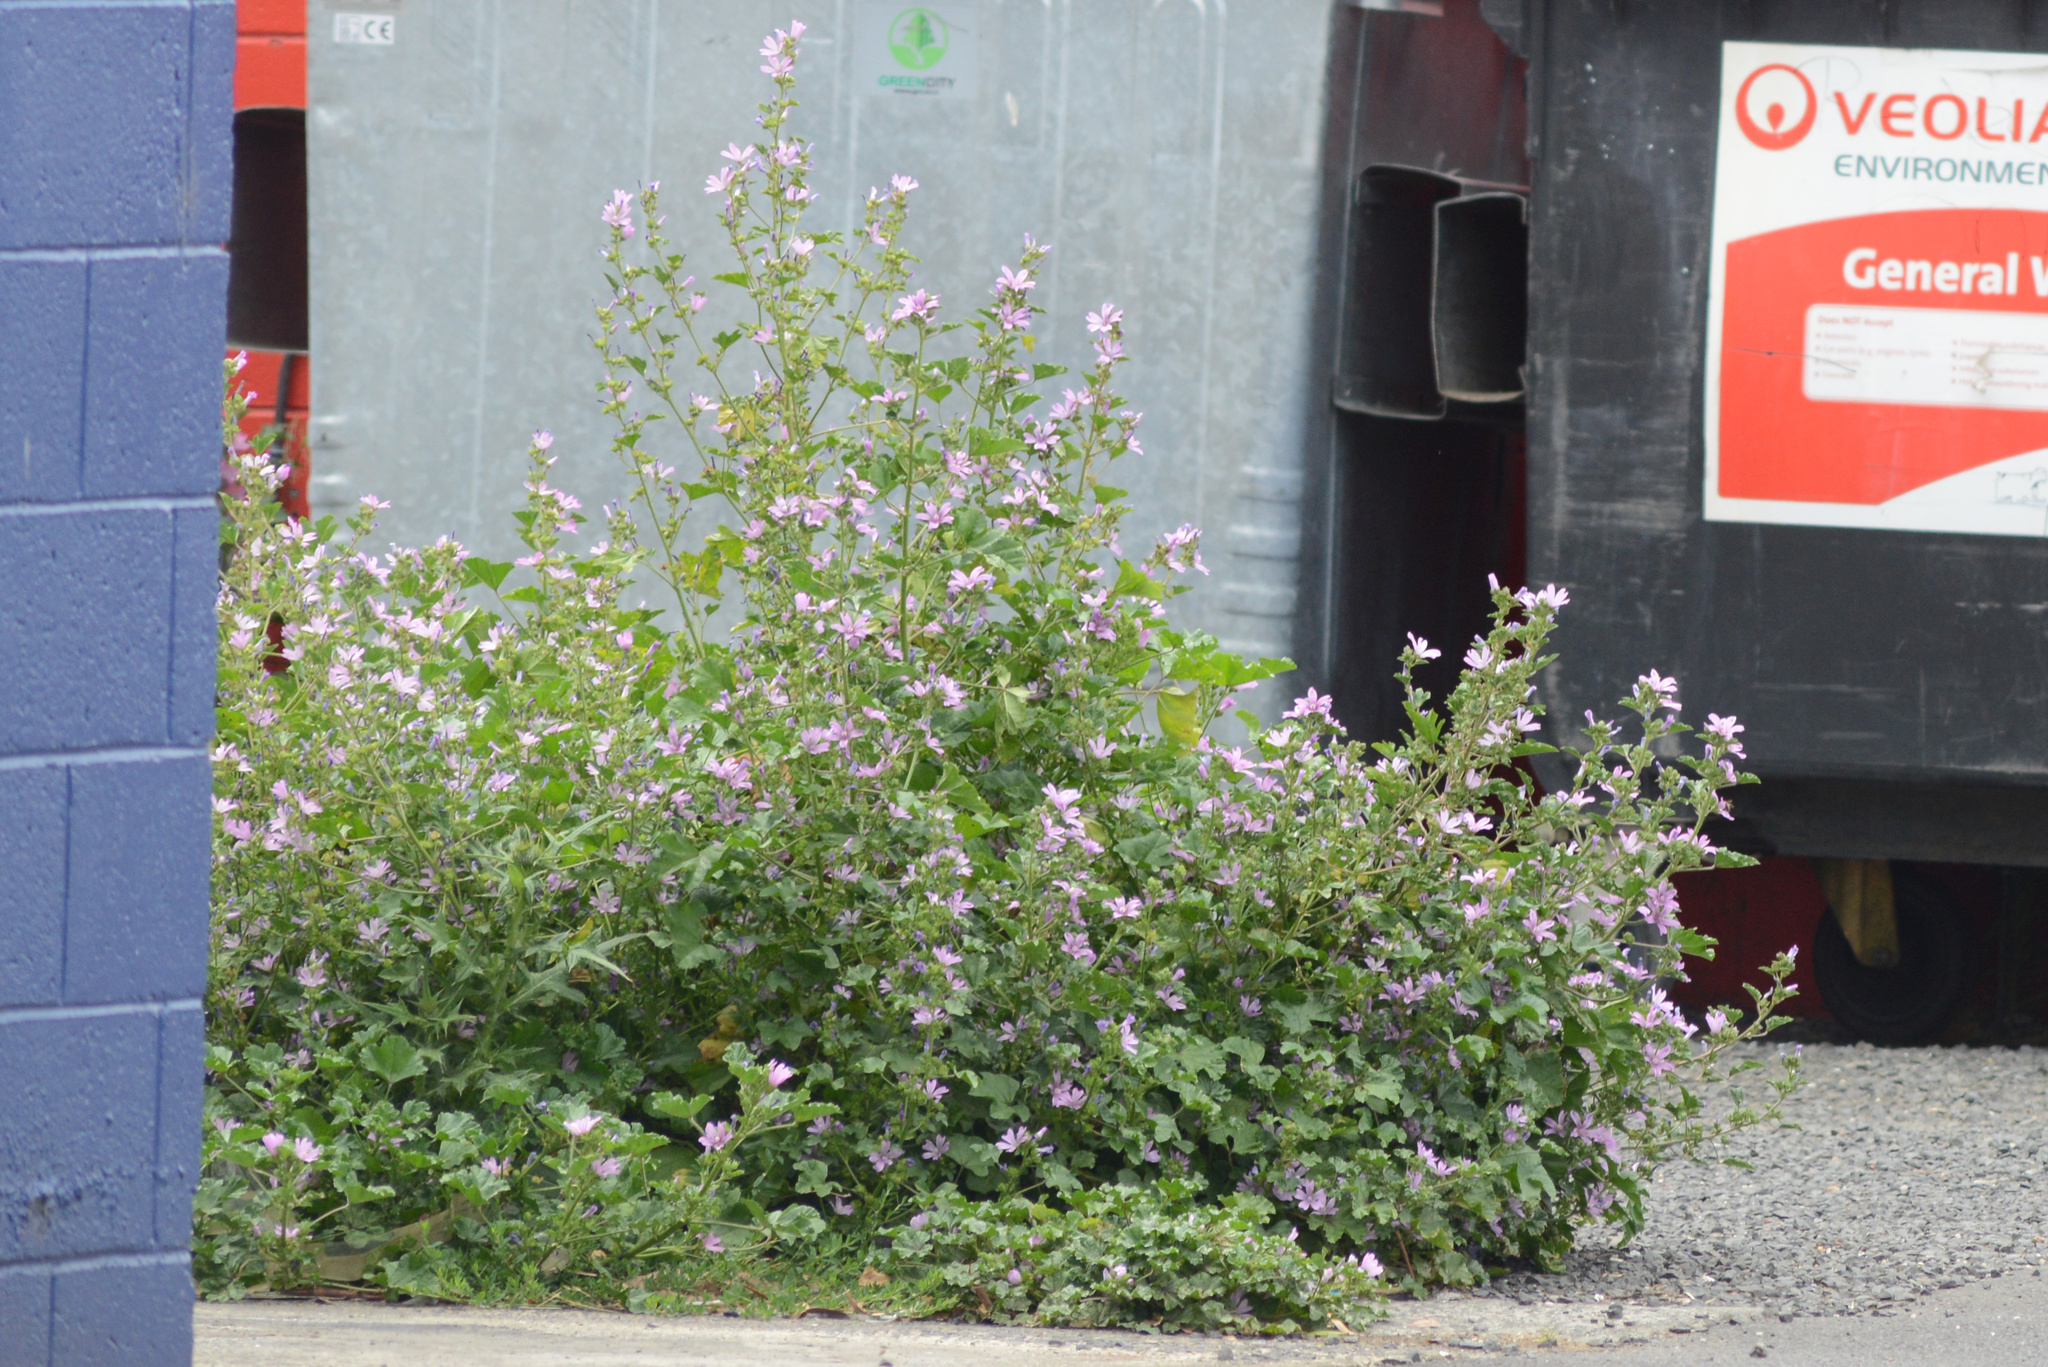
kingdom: Plantae
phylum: Tracheophyta
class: Magnoliopsida
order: Malvales
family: Malvaceae
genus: Malva
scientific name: Malva sylvestris
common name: Common mallow
